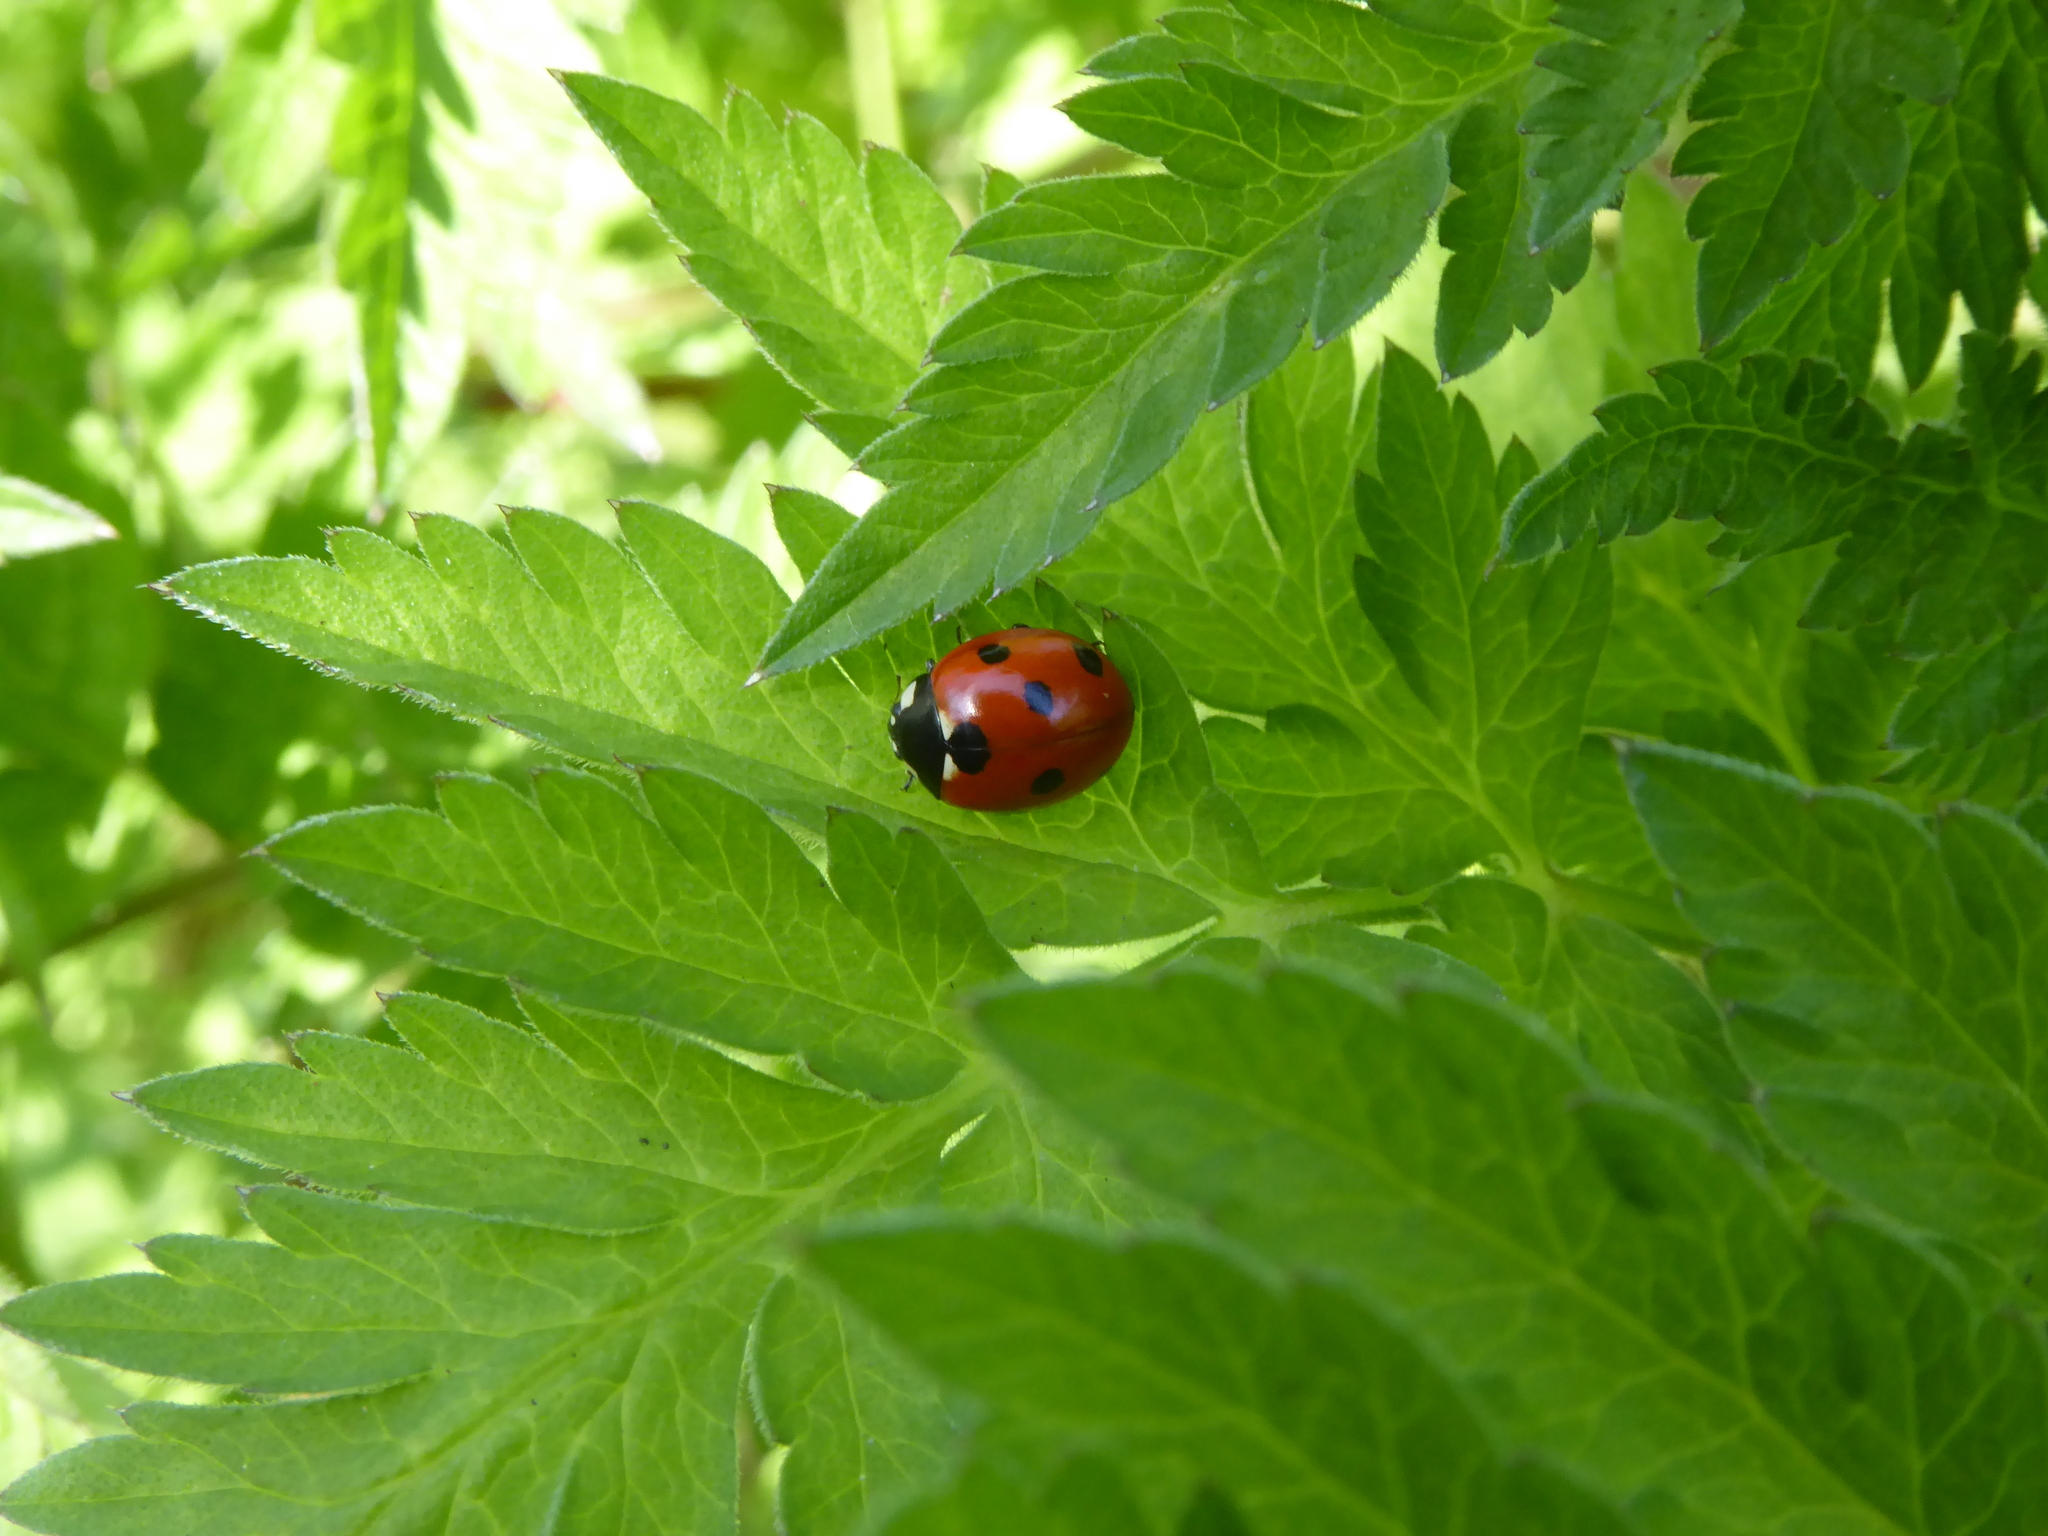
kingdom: Animalia
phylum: Arthropoda
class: Insecta
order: Coleoptera
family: Coccinellidae
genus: Coccinella
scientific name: Coccinella septempunctata
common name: Sevenspotted lady beetle
